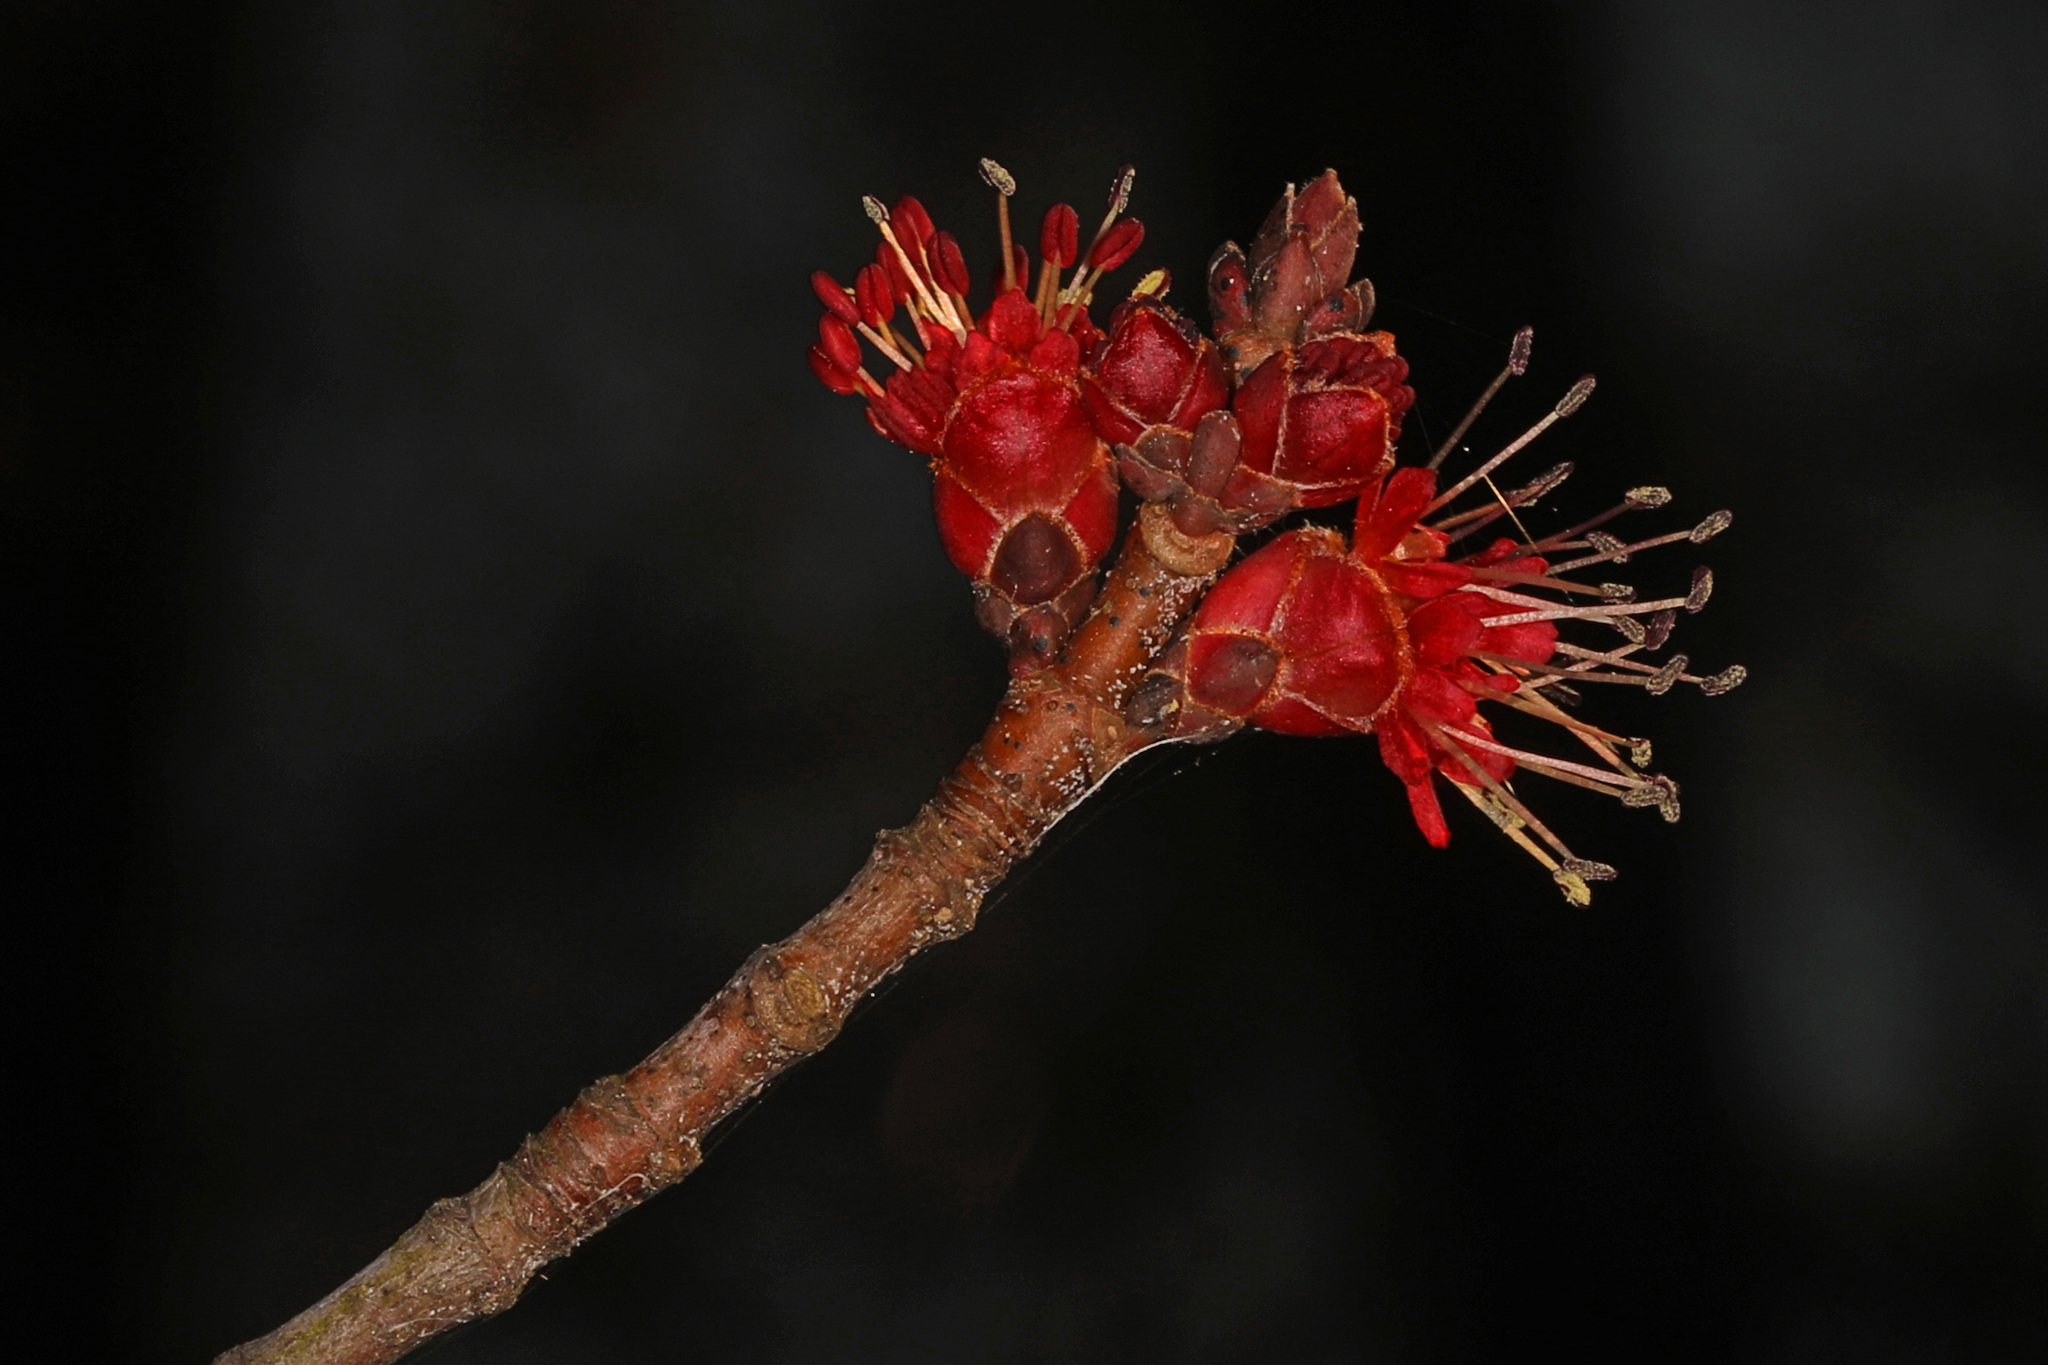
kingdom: Plantae
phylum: Tracheophyta
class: Magnoliopsida
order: Sapindales
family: Sapindaceae
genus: Acer
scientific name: Acer rubrum
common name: Red maple
